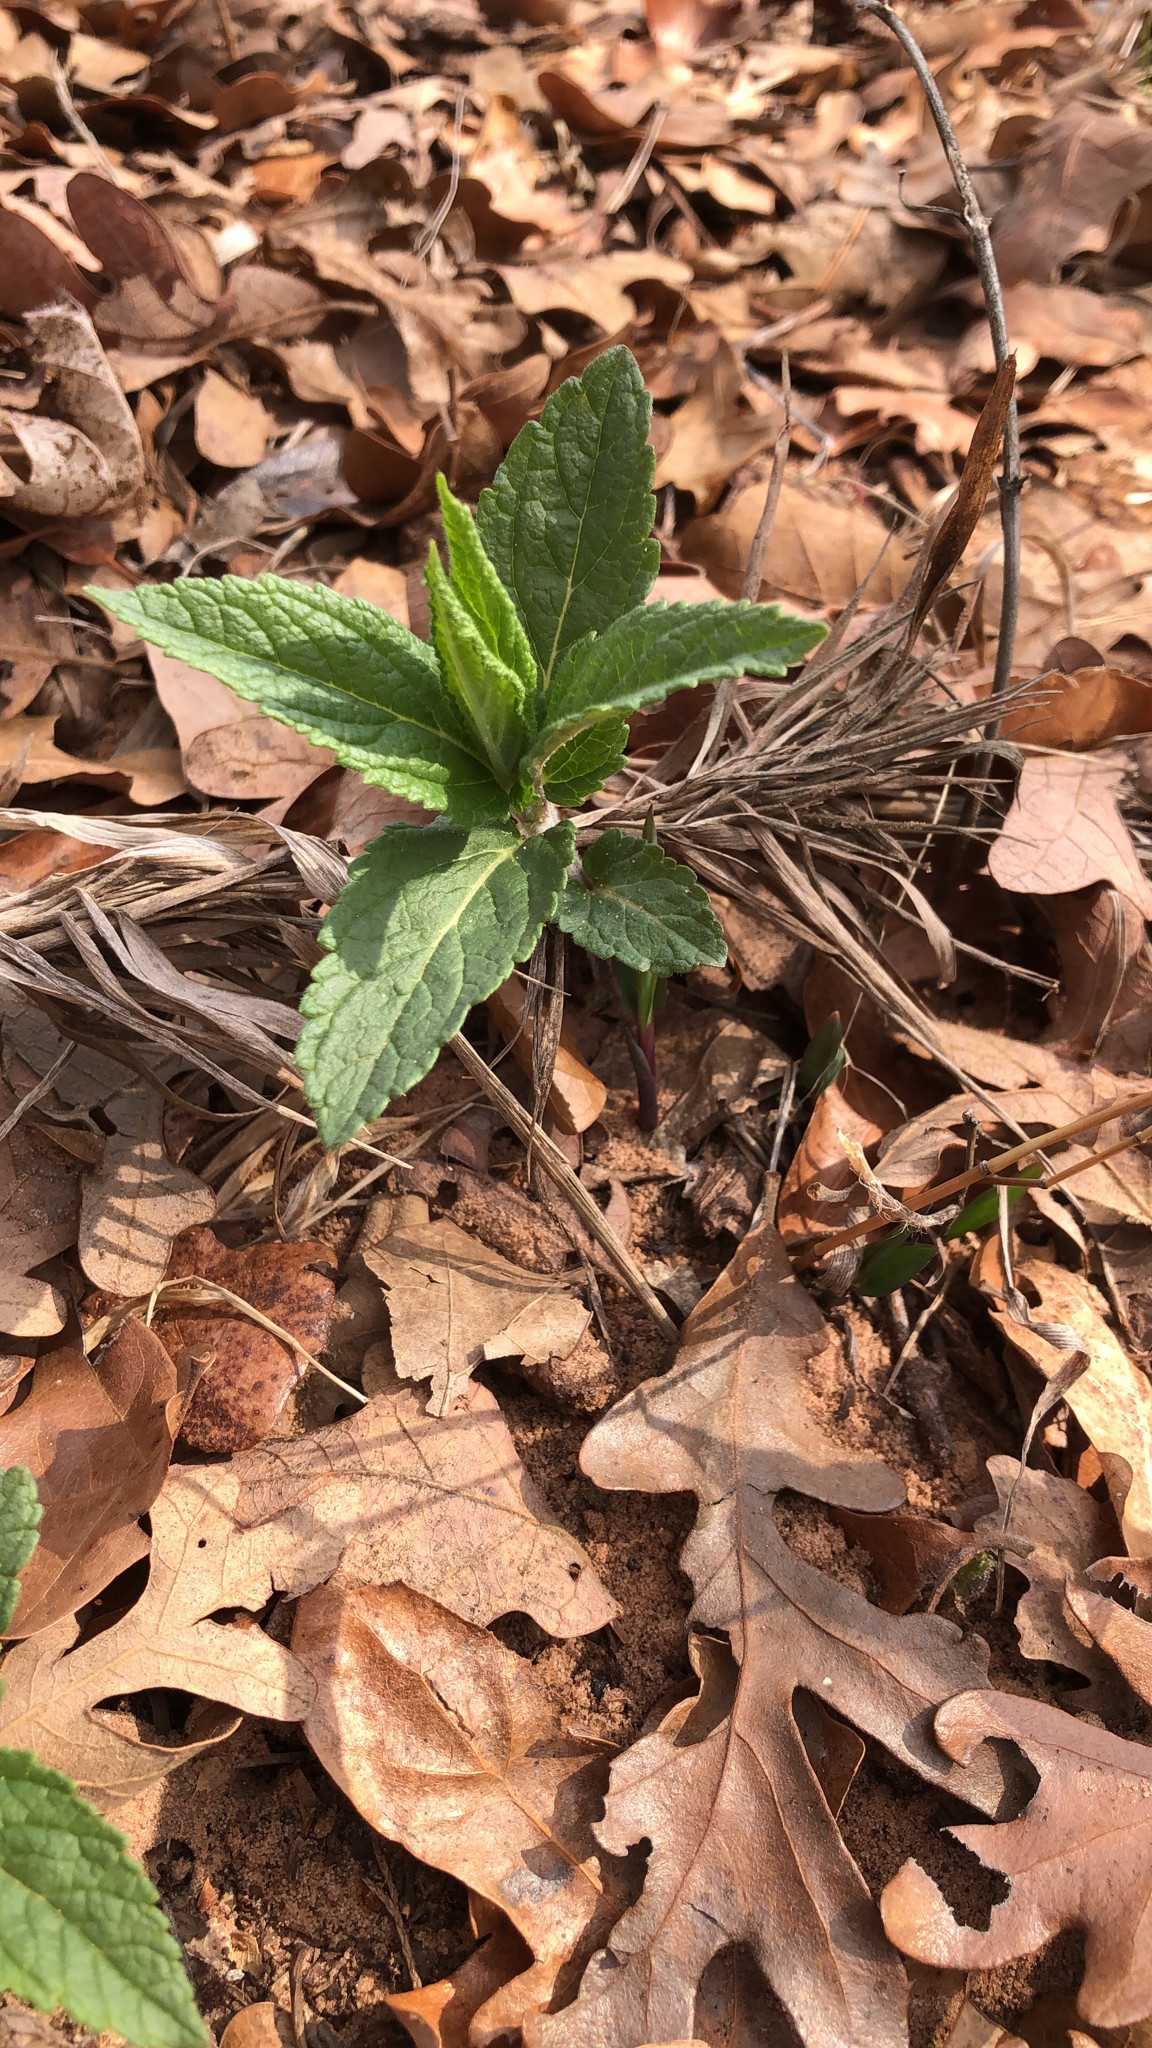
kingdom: Plantae
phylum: Tracheophyta
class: Magnoliopsida
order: Lamiales
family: Lamiaceae
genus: Teucrium
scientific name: Teucrium canadense
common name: American germander
